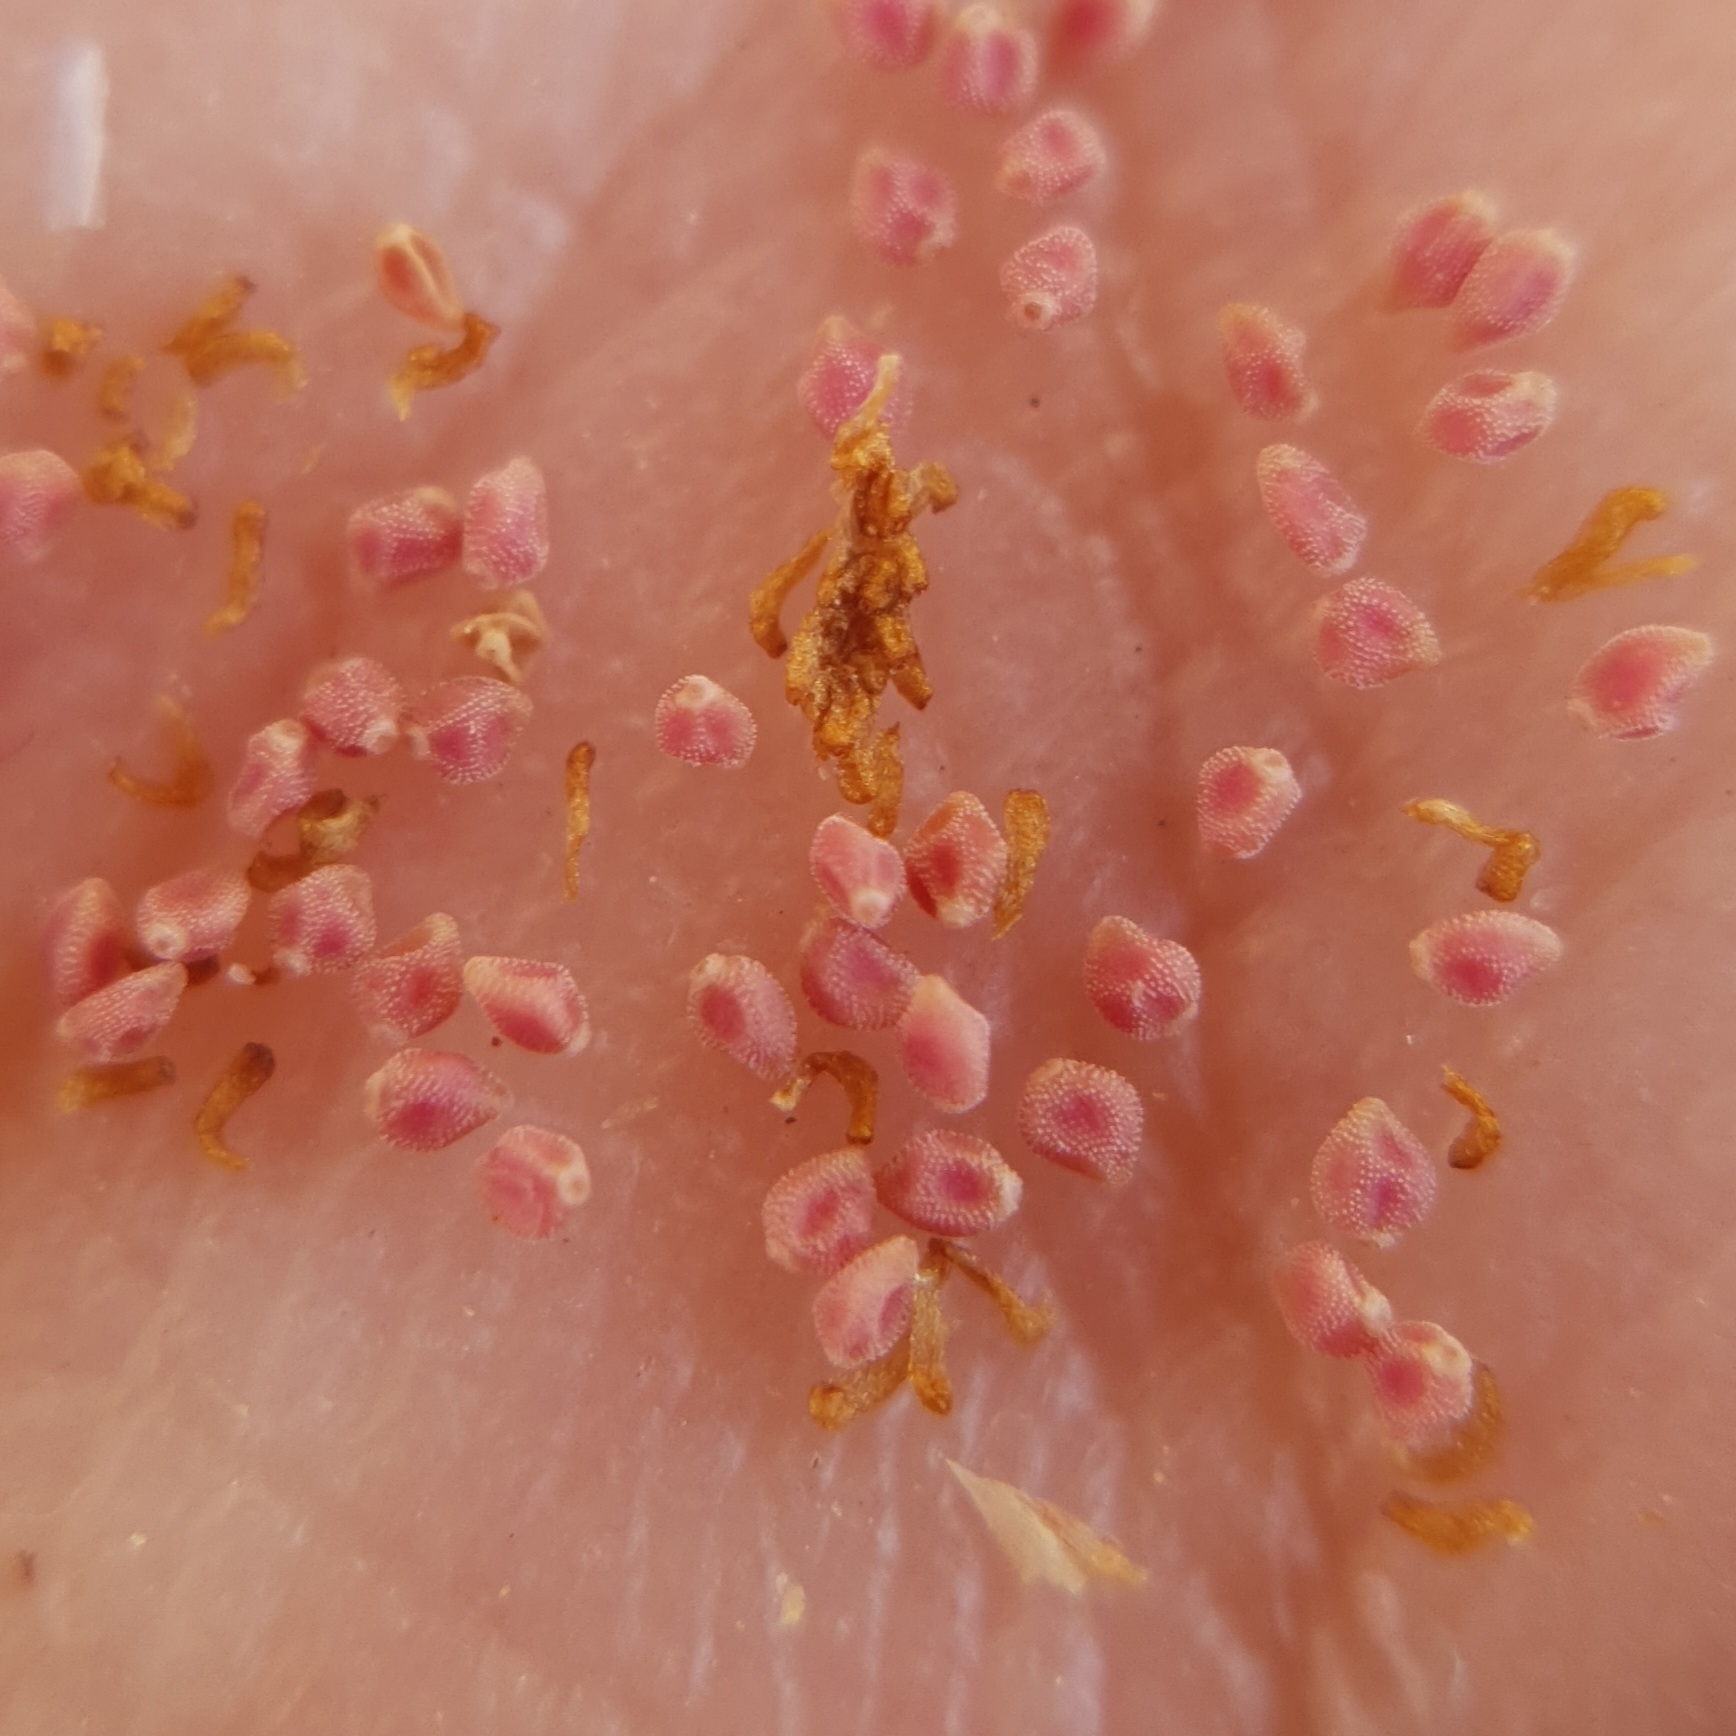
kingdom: Plantae
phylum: Tracheophyta
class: Magnoliopsida
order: Malvales
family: Cistaceae
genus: Helianthemum
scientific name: Helianthemum salicifolium
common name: Willowleaf frostweed
